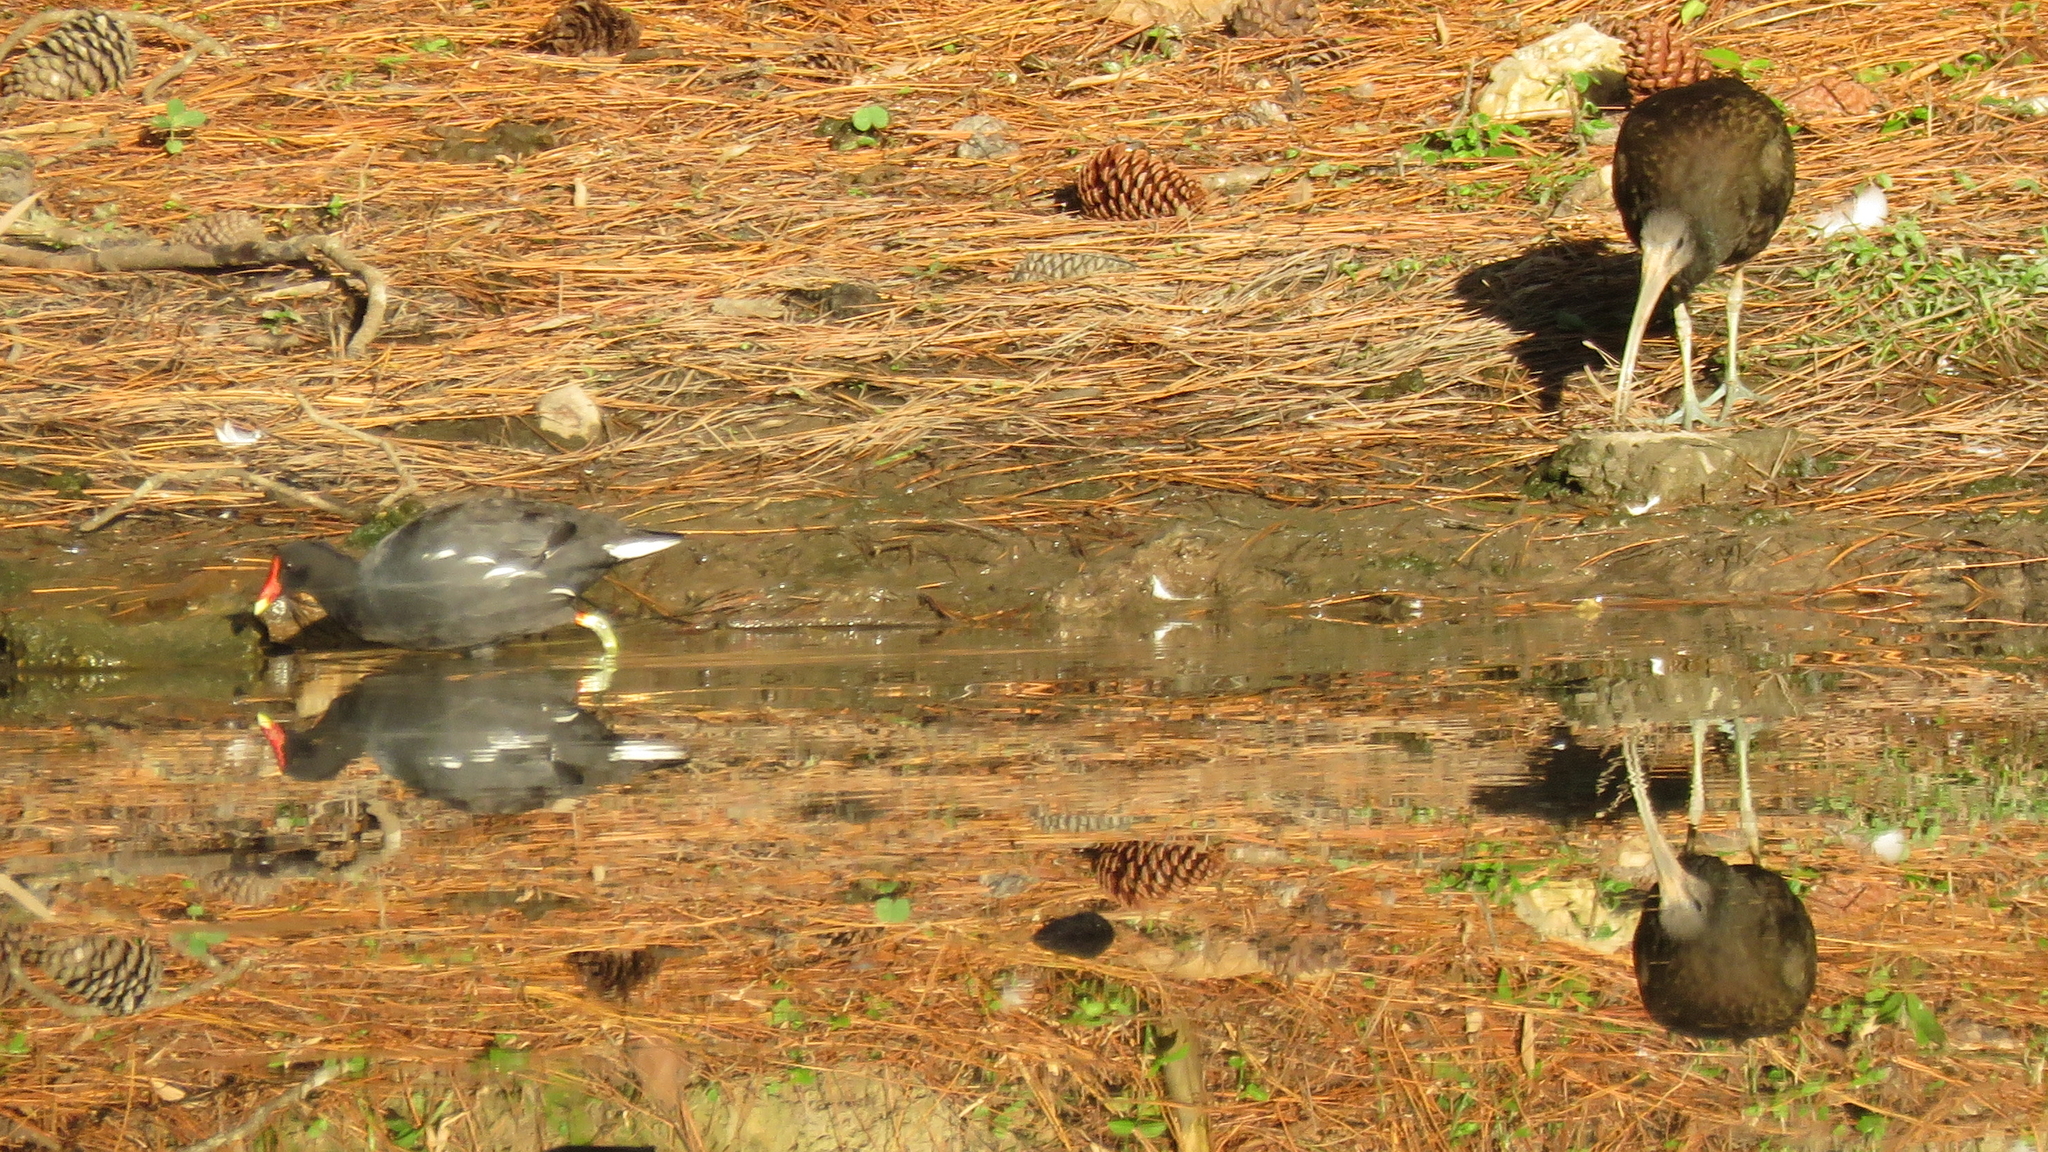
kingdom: Animalia
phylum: Chordata
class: Aves
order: Pelecaniformes
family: Threskiornithidae
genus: Mesembrinibis
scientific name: Mesembrinibis cayennensis
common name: Green ibis
